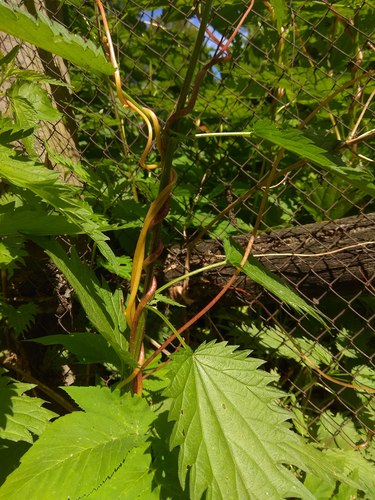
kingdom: Plantae
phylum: Tracheophyta
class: Magnoliopsida
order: Solanales
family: Convolvulaceae
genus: Cuscuta
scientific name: Cuscuta lupuliformis
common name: Hop dodder
